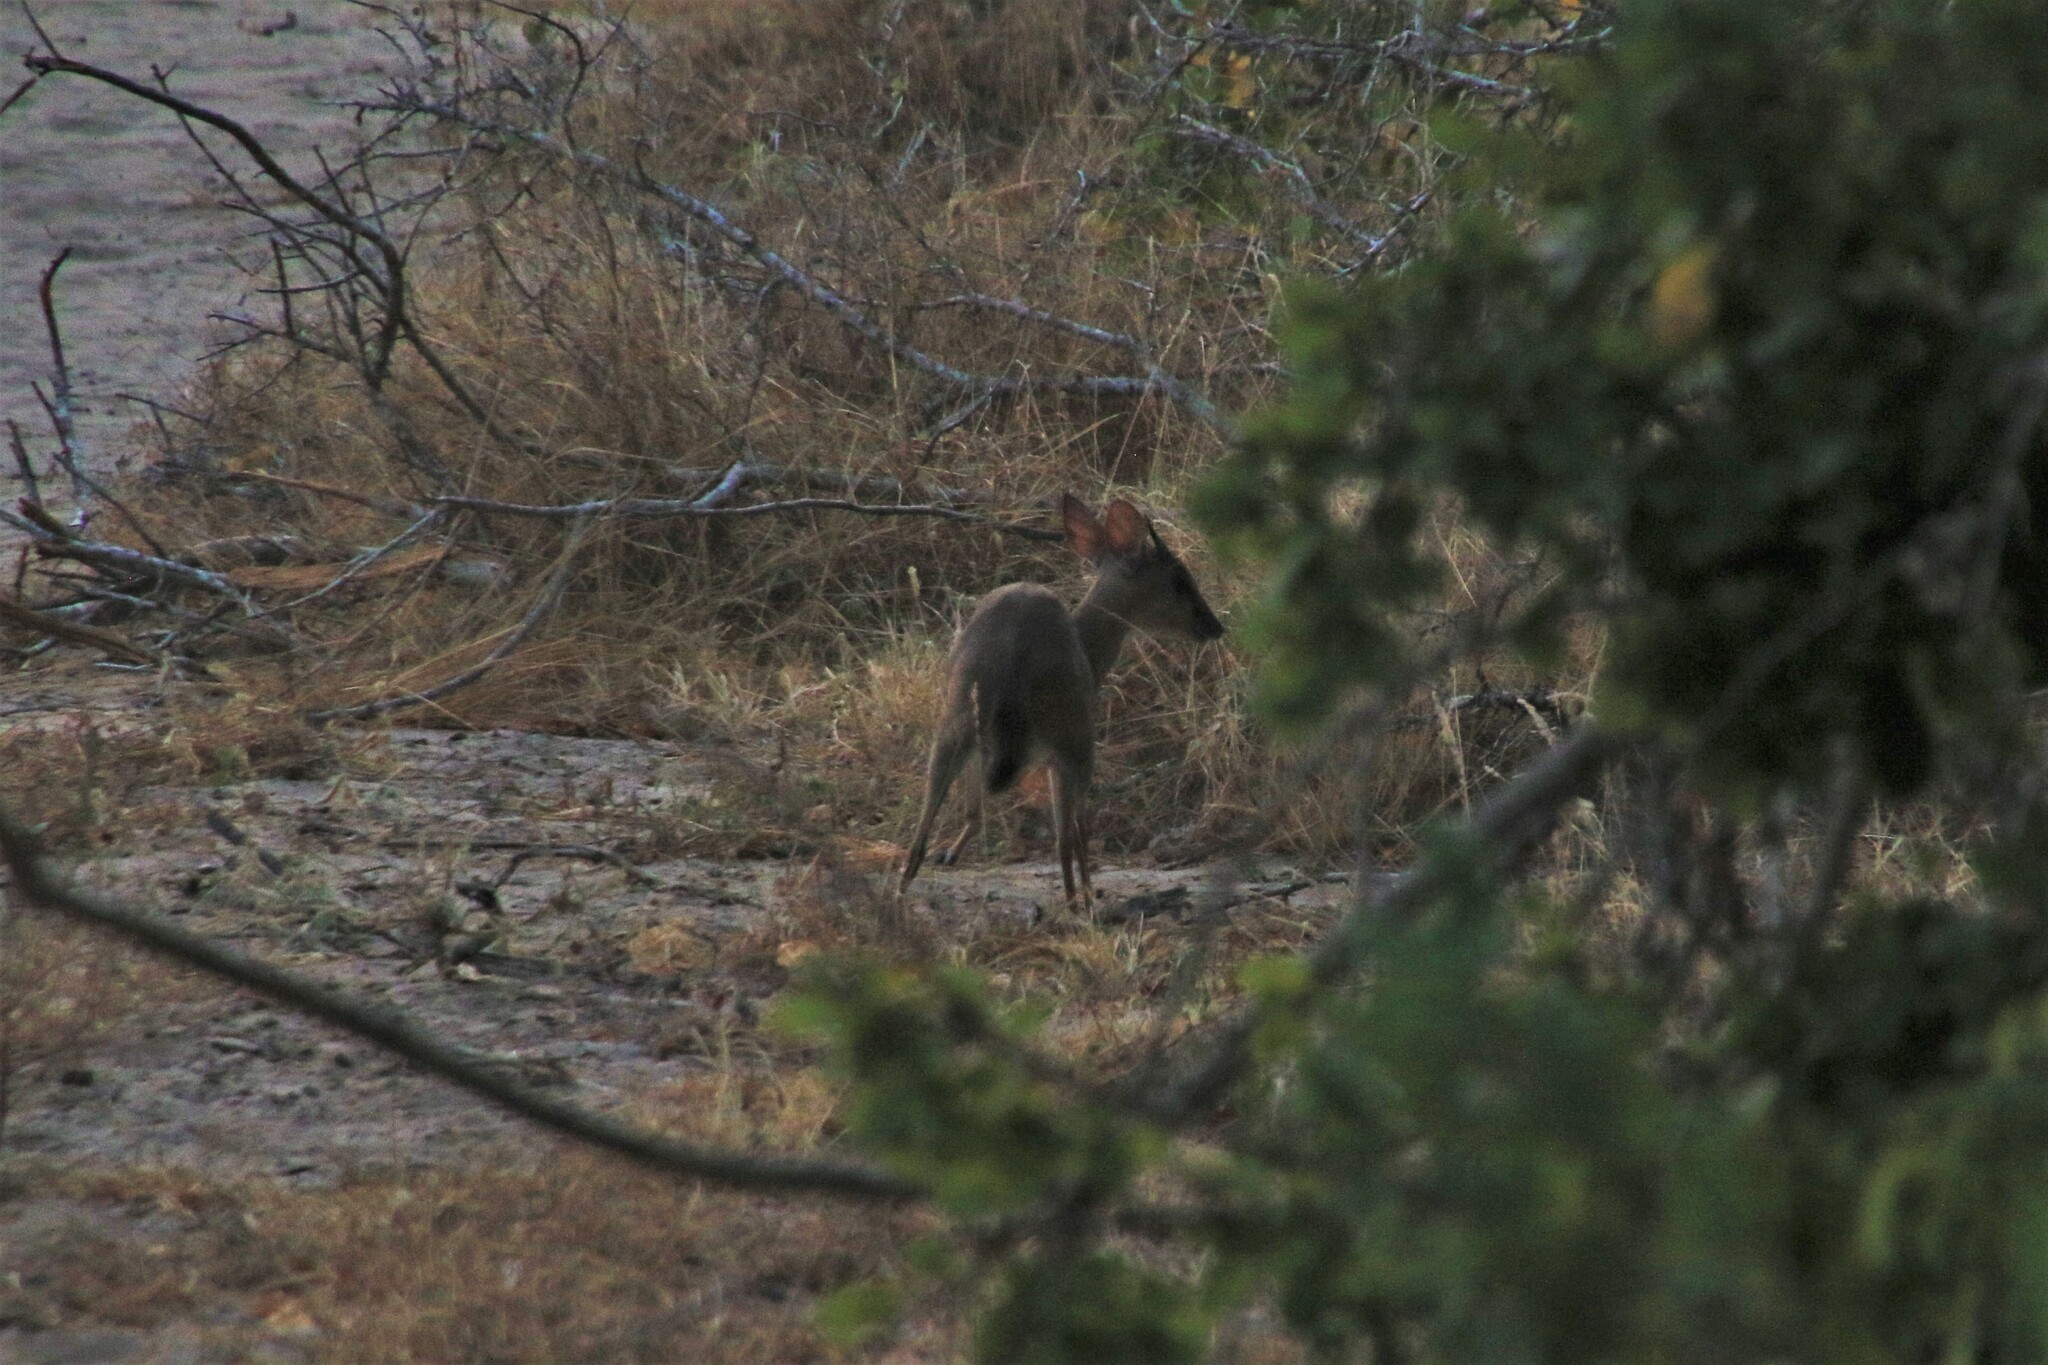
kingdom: Animalia
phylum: Chordata
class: Mammalia
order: Artiodactyla
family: Bovidae
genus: Neotragus
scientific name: Neotragus moschatus
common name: Suni
